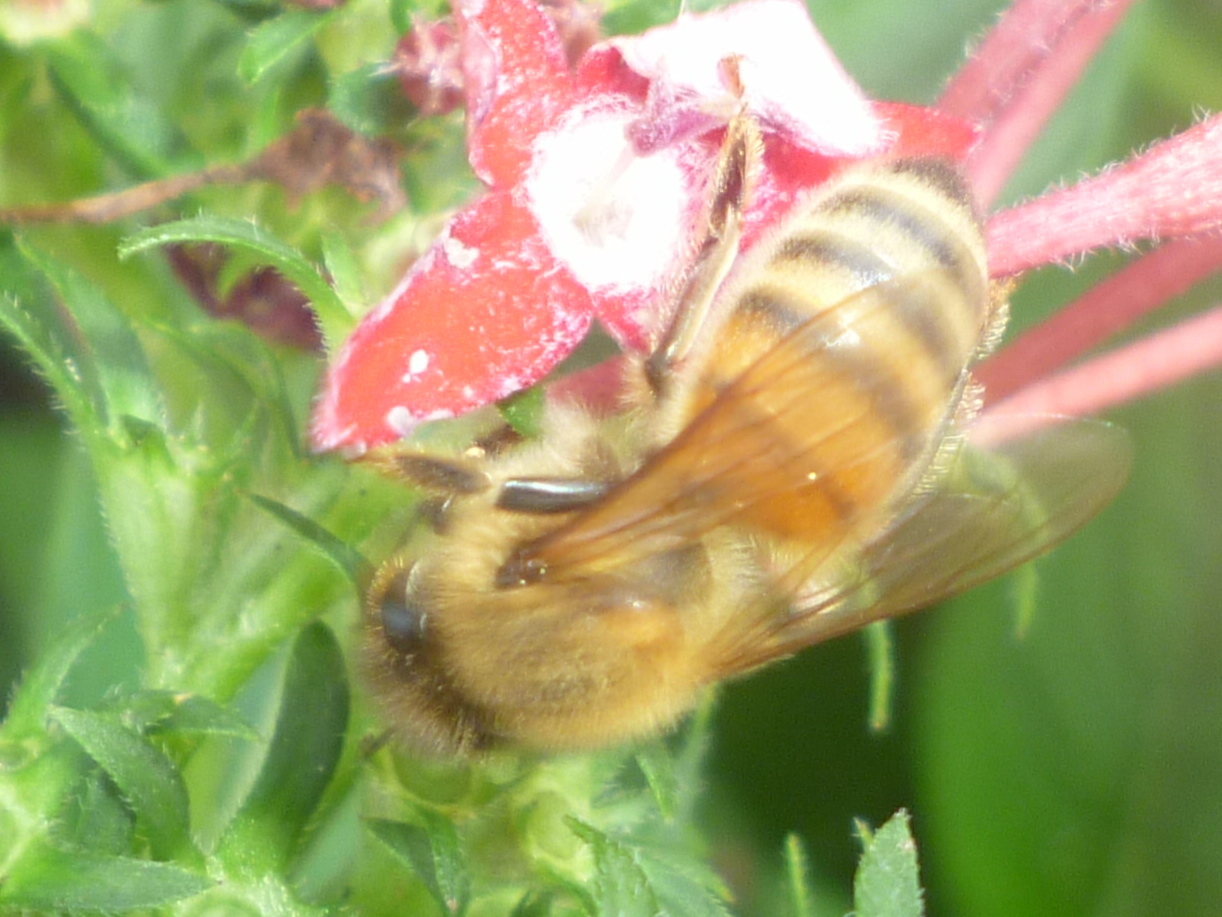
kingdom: Animalia
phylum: Arthropoda
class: Insecta
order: Hymenoptera
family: Apidae
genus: Apis
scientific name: Apis mellifera
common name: Honey bee
